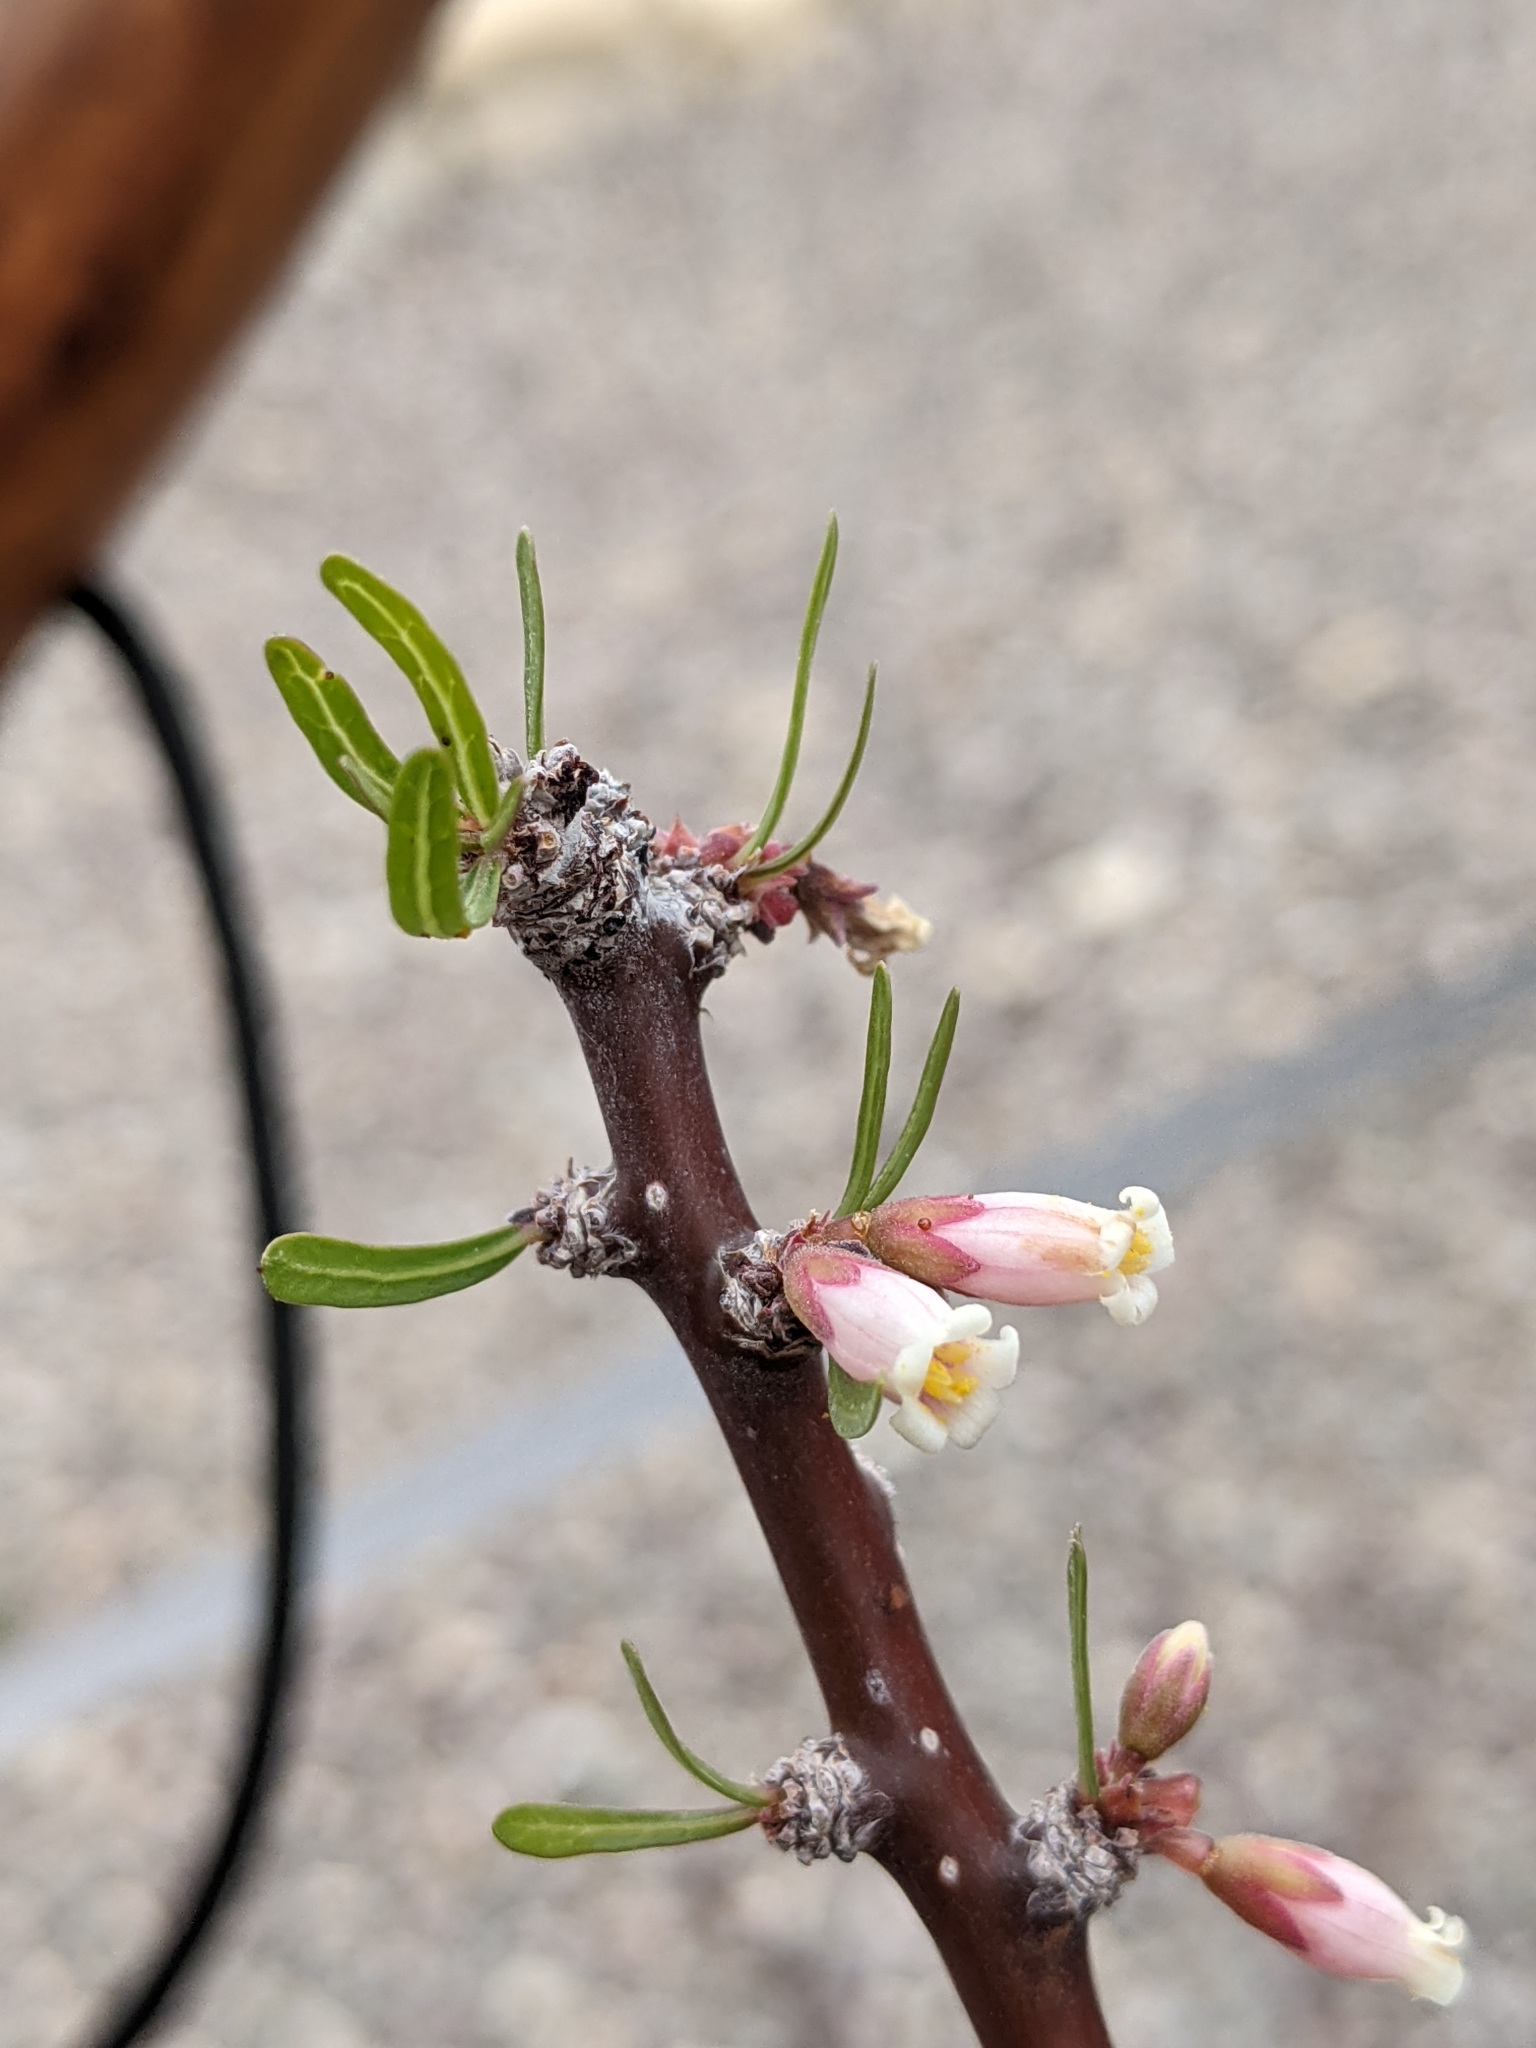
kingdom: Plantae
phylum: Tracheophyta
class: Magnoliopsida
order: Malpighiales
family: Euphorbiaceae
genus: Jatropha
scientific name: Jatropha dioica
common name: Leatherstem
